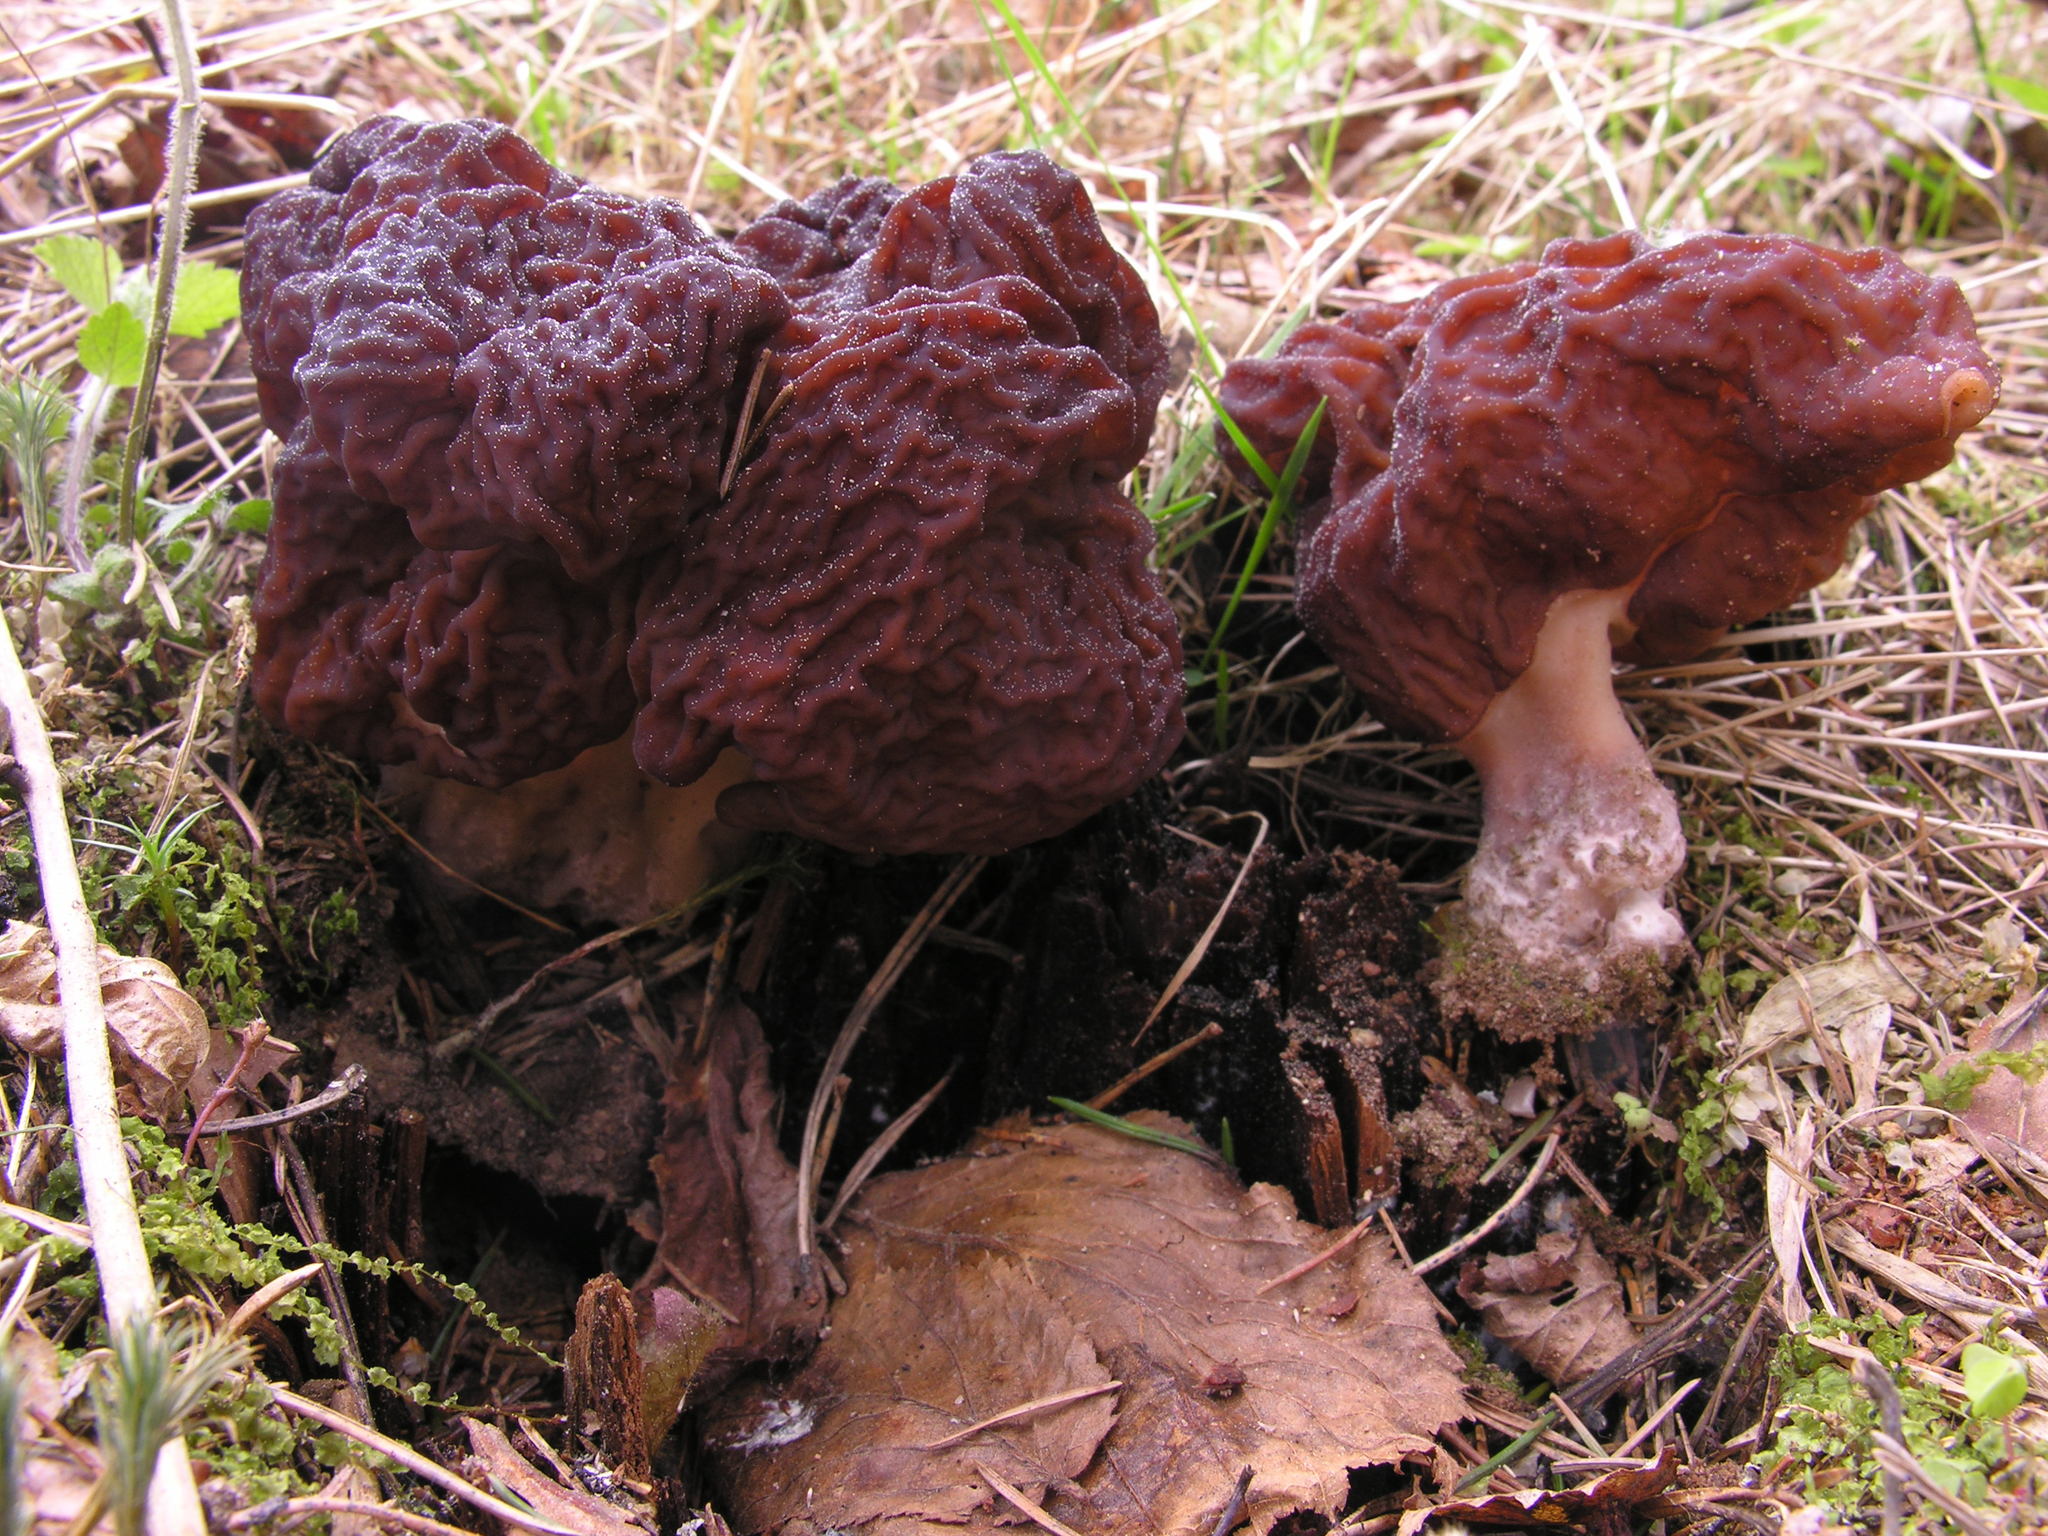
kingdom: Fungi
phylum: Ascomycota
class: Pezizomycetes
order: Pezizales
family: Discinaceae
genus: Gyromitra
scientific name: Gyromitra esculenta
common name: False morel
